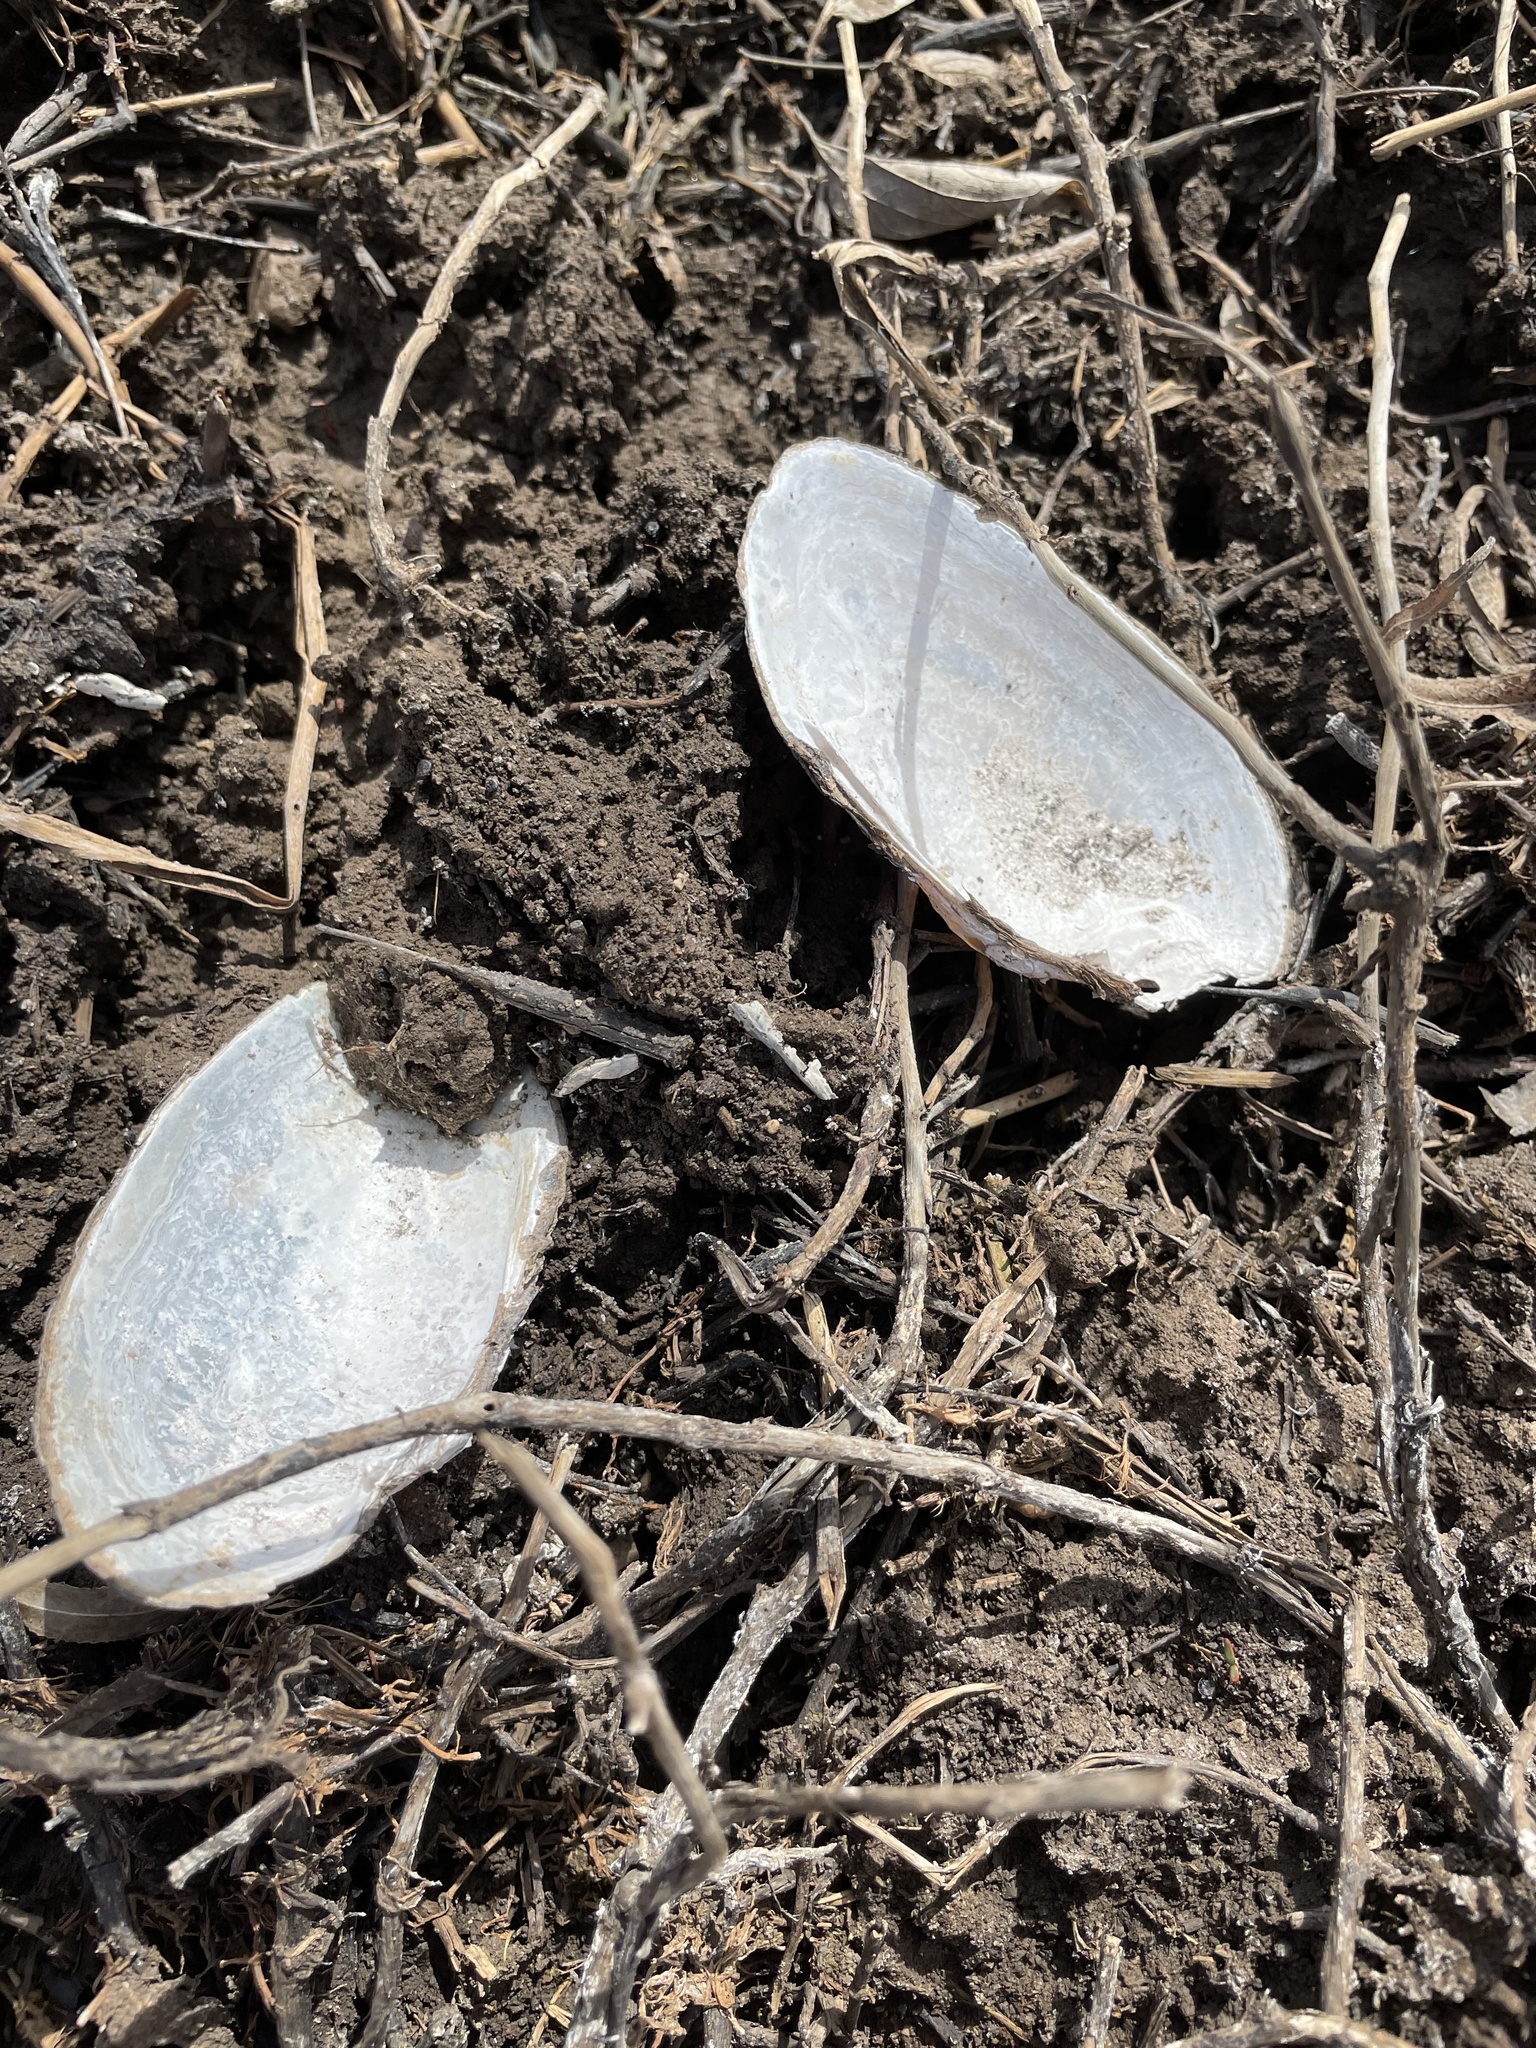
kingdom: Animalia
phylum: Mollusca
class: Bivalvia
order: Unionida
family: Unionidae
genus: Uniomerus
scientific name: Uniomerus tetralasmus
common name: Pondhorn
